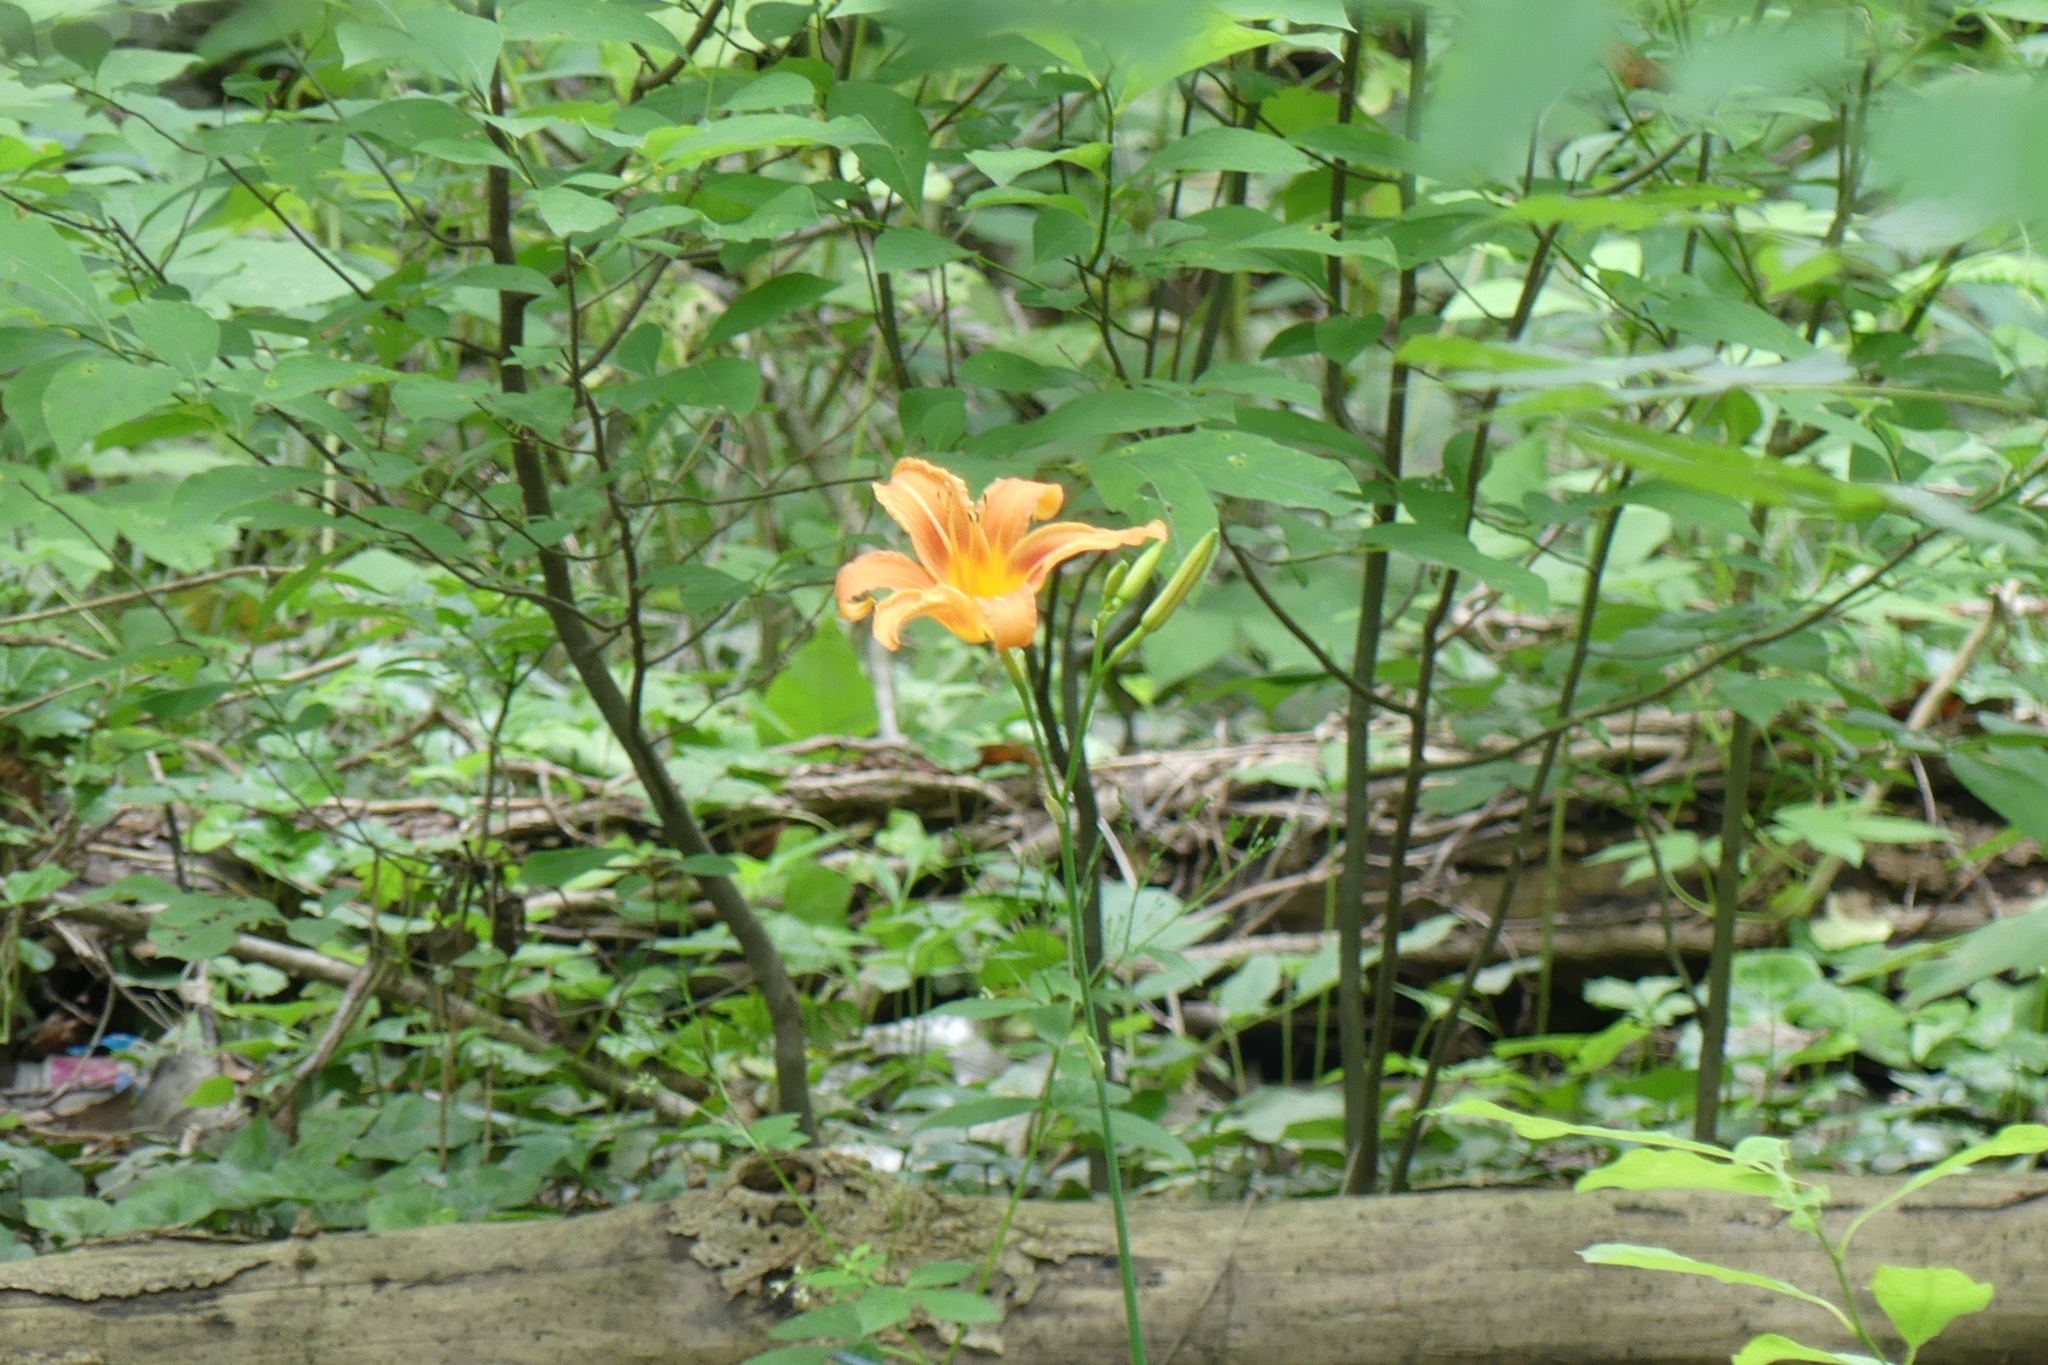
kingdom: Plantae
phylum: Tracheophyta
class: Liliopsida
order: Asparagales
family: Asphodelaceae
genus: Hemerocallis
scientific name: Hemerocallis fulva
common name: Orange day-lily
